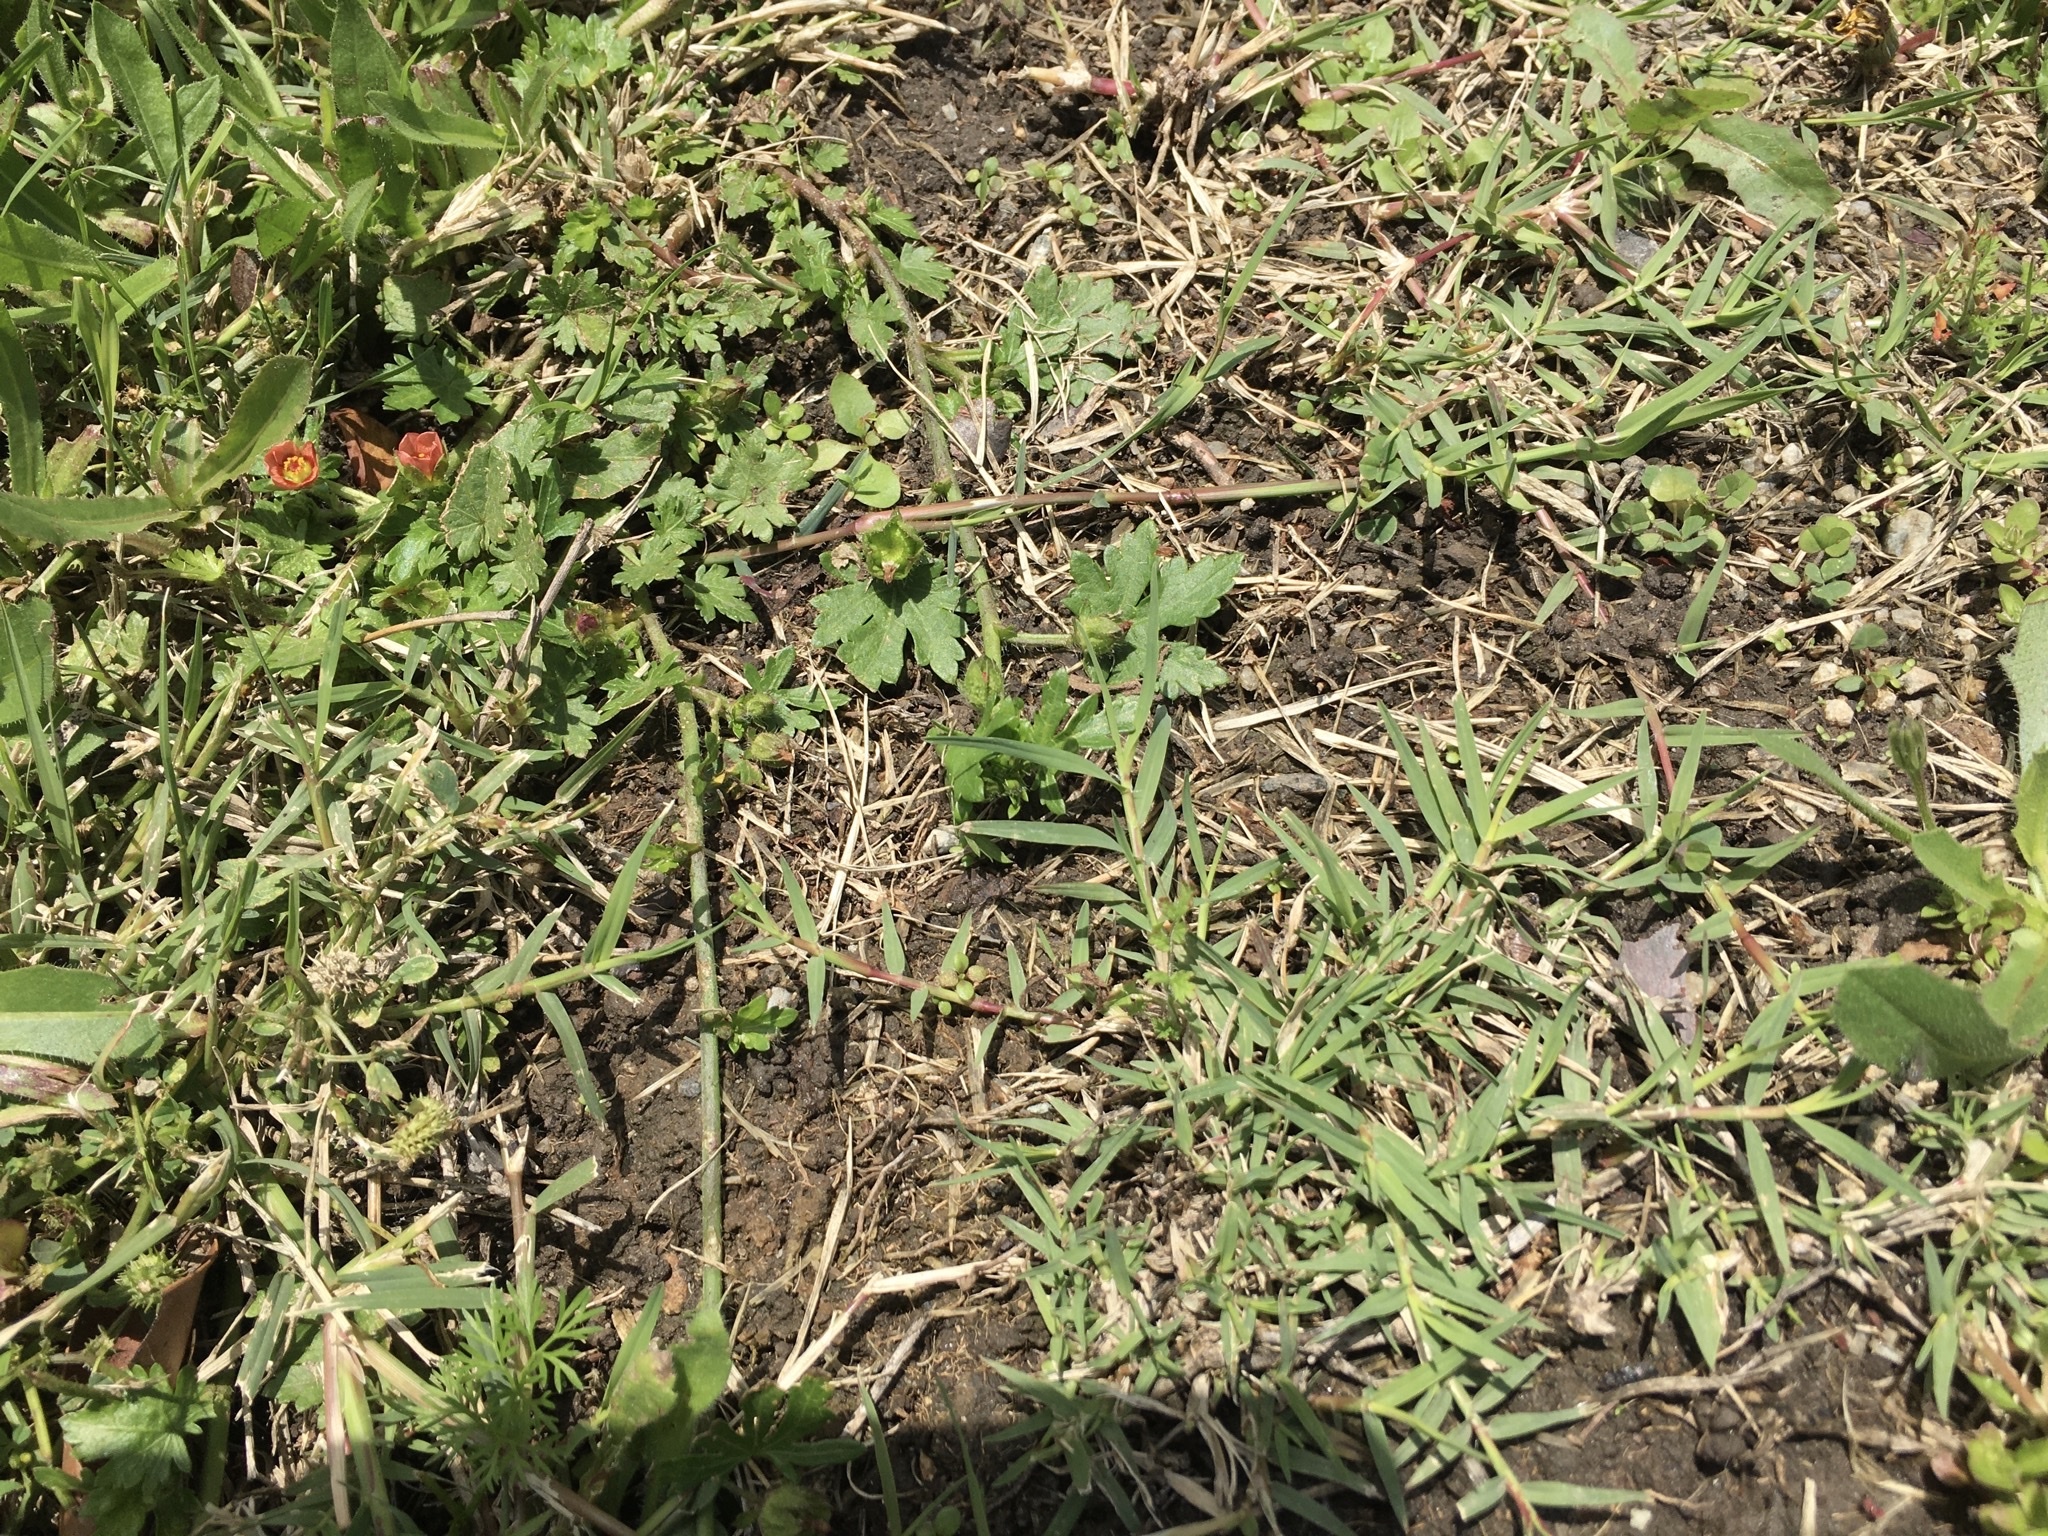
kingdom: Plantae
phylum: Tracheophyta
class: Magnoliopsida
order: Malvales
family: Malvaceae
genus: Modiola
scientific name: Modiola caroliniana
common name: Carolina bristlemallow
